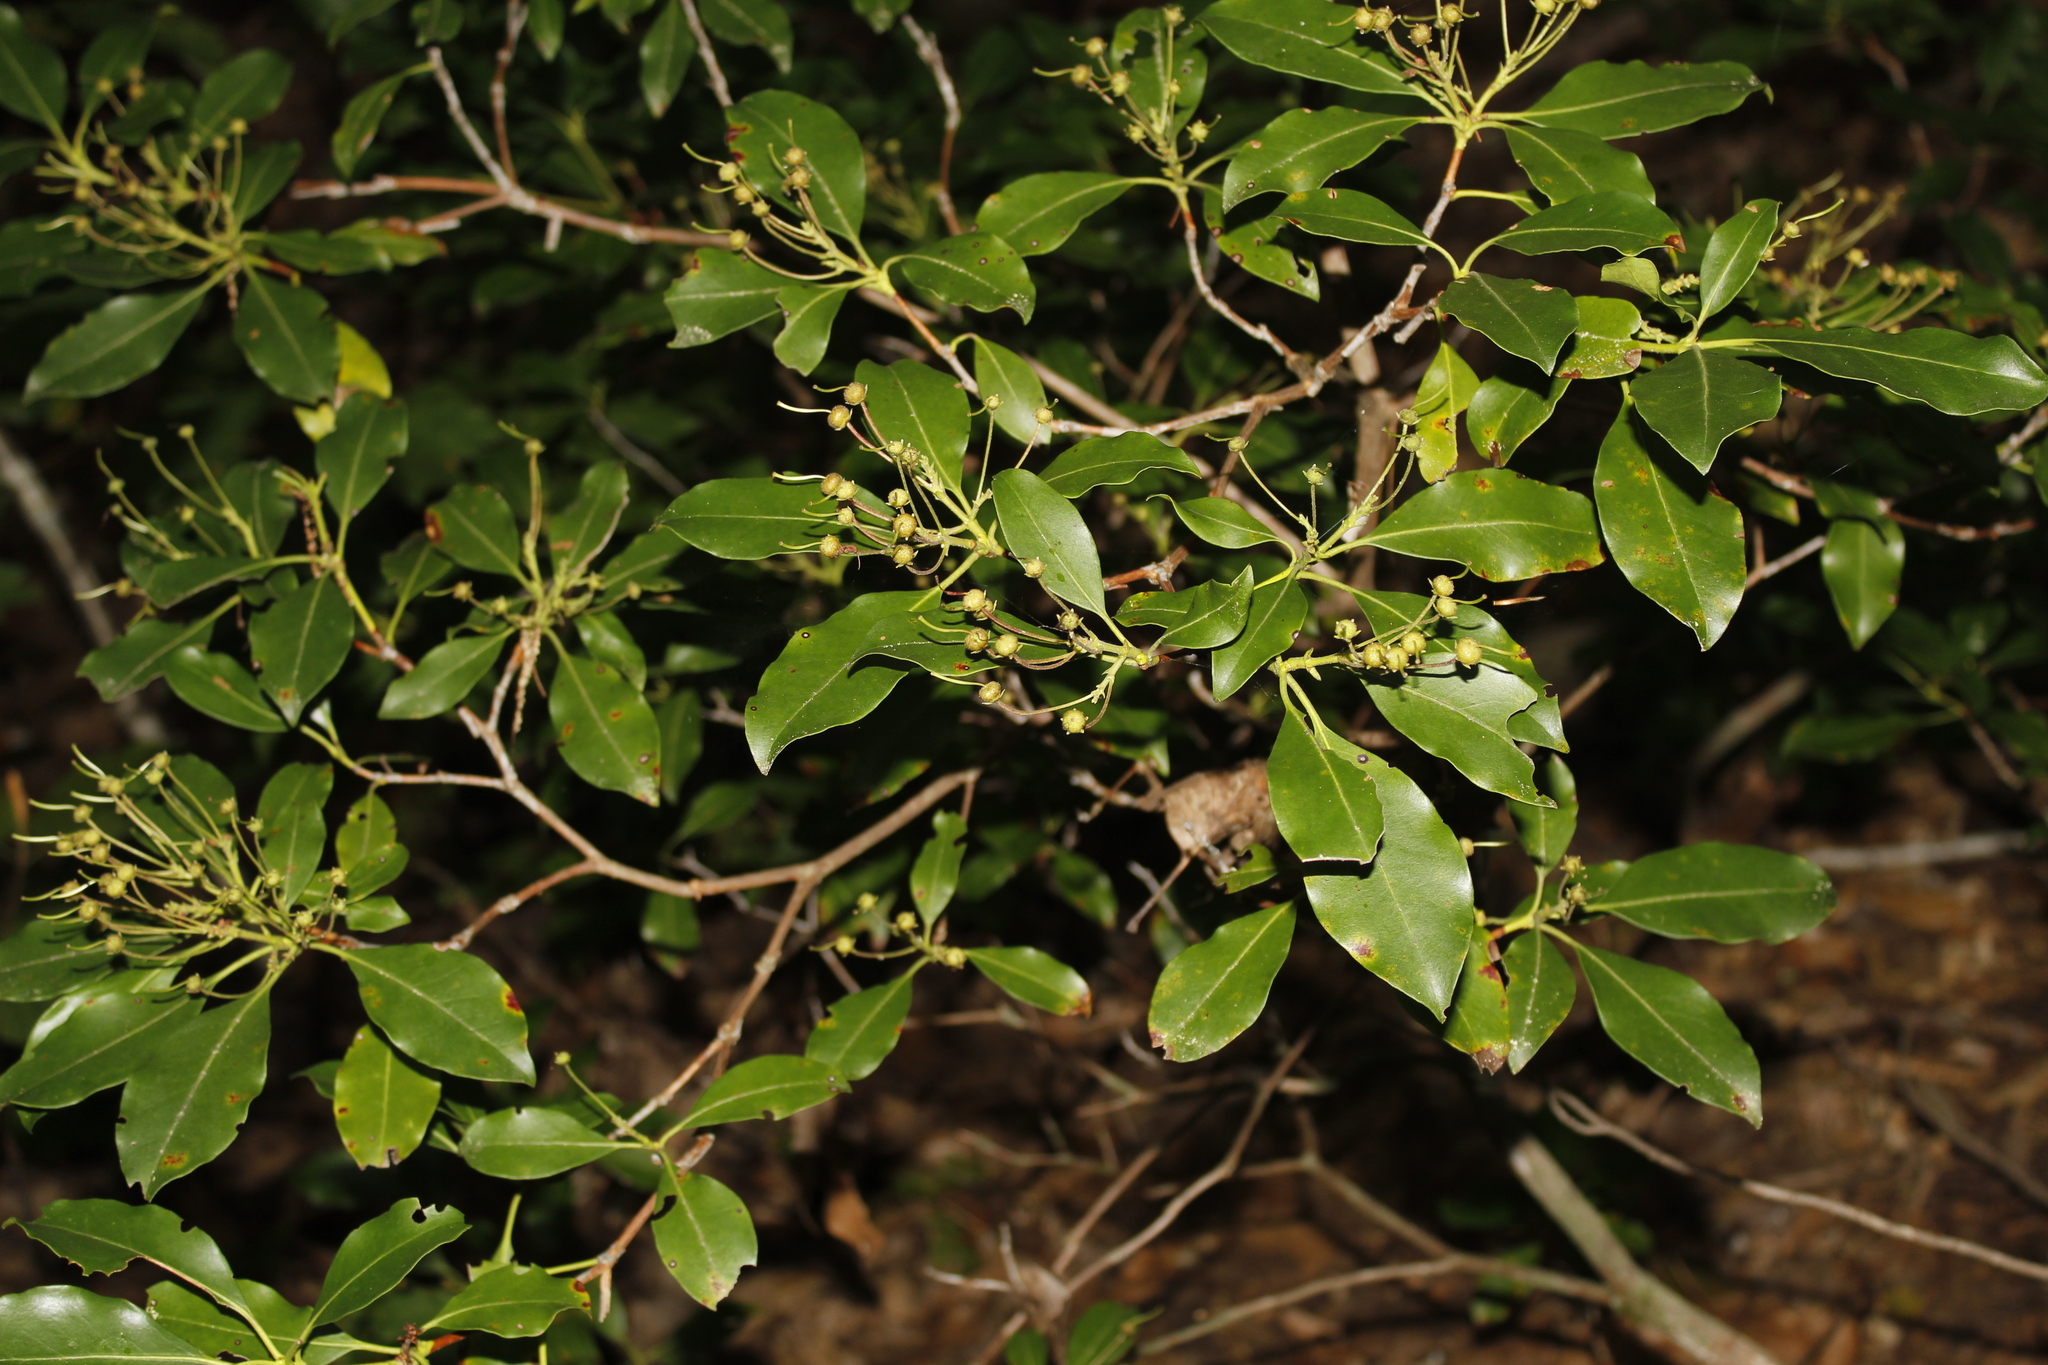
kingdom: Plantae
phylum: Tracheophyta
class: Magnoliopsida
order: Ericales
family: Ericaceae
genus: Kalmia
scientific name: Kalmia latifolia
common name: Mountain-laurel
